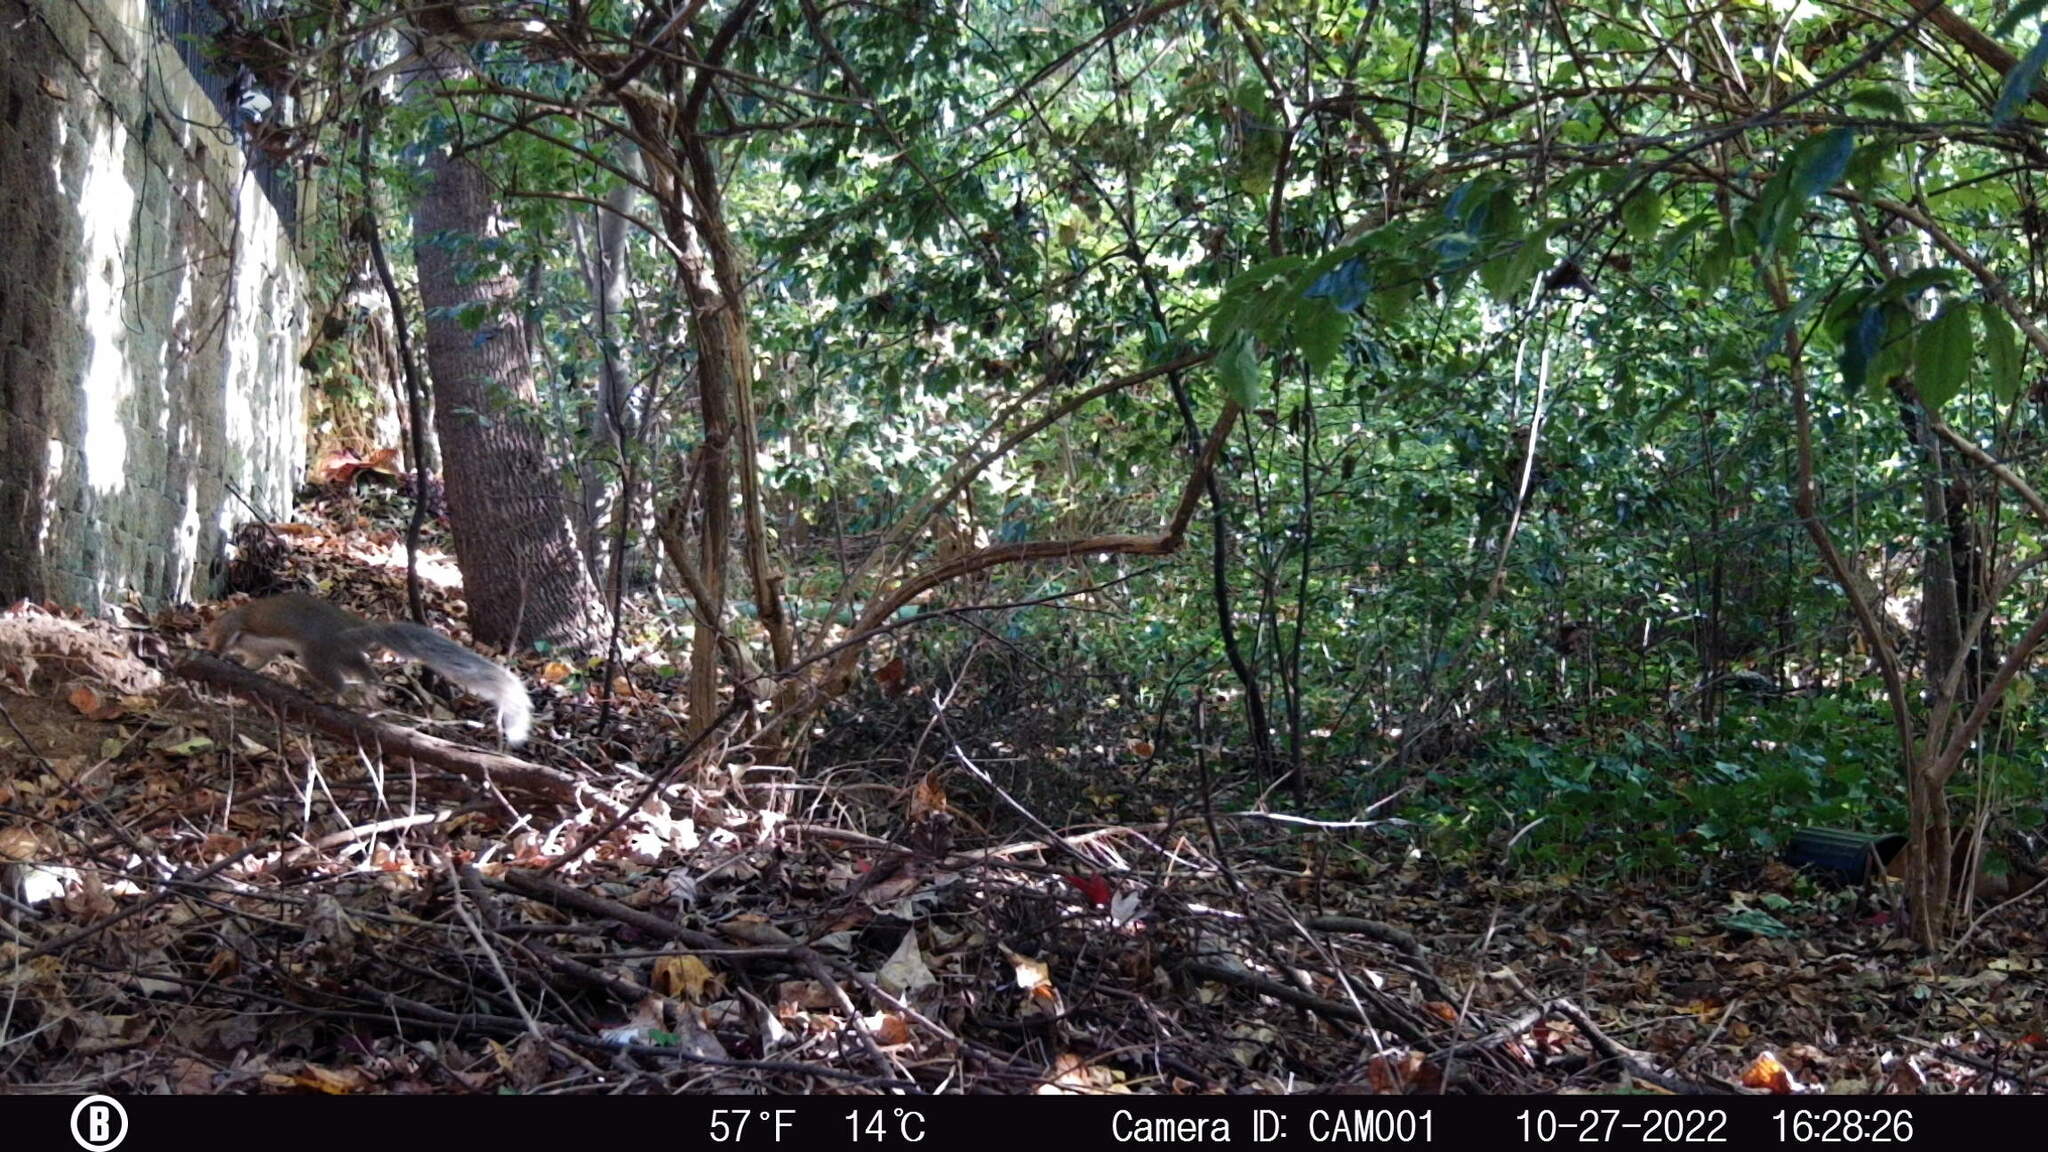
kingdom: Animalia
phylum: Chordata
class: Mammalia
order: Rodentia
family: Sciuridae
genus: Sciurus
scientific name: Sciurus carolinensis
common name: Eastern gray squirrel
